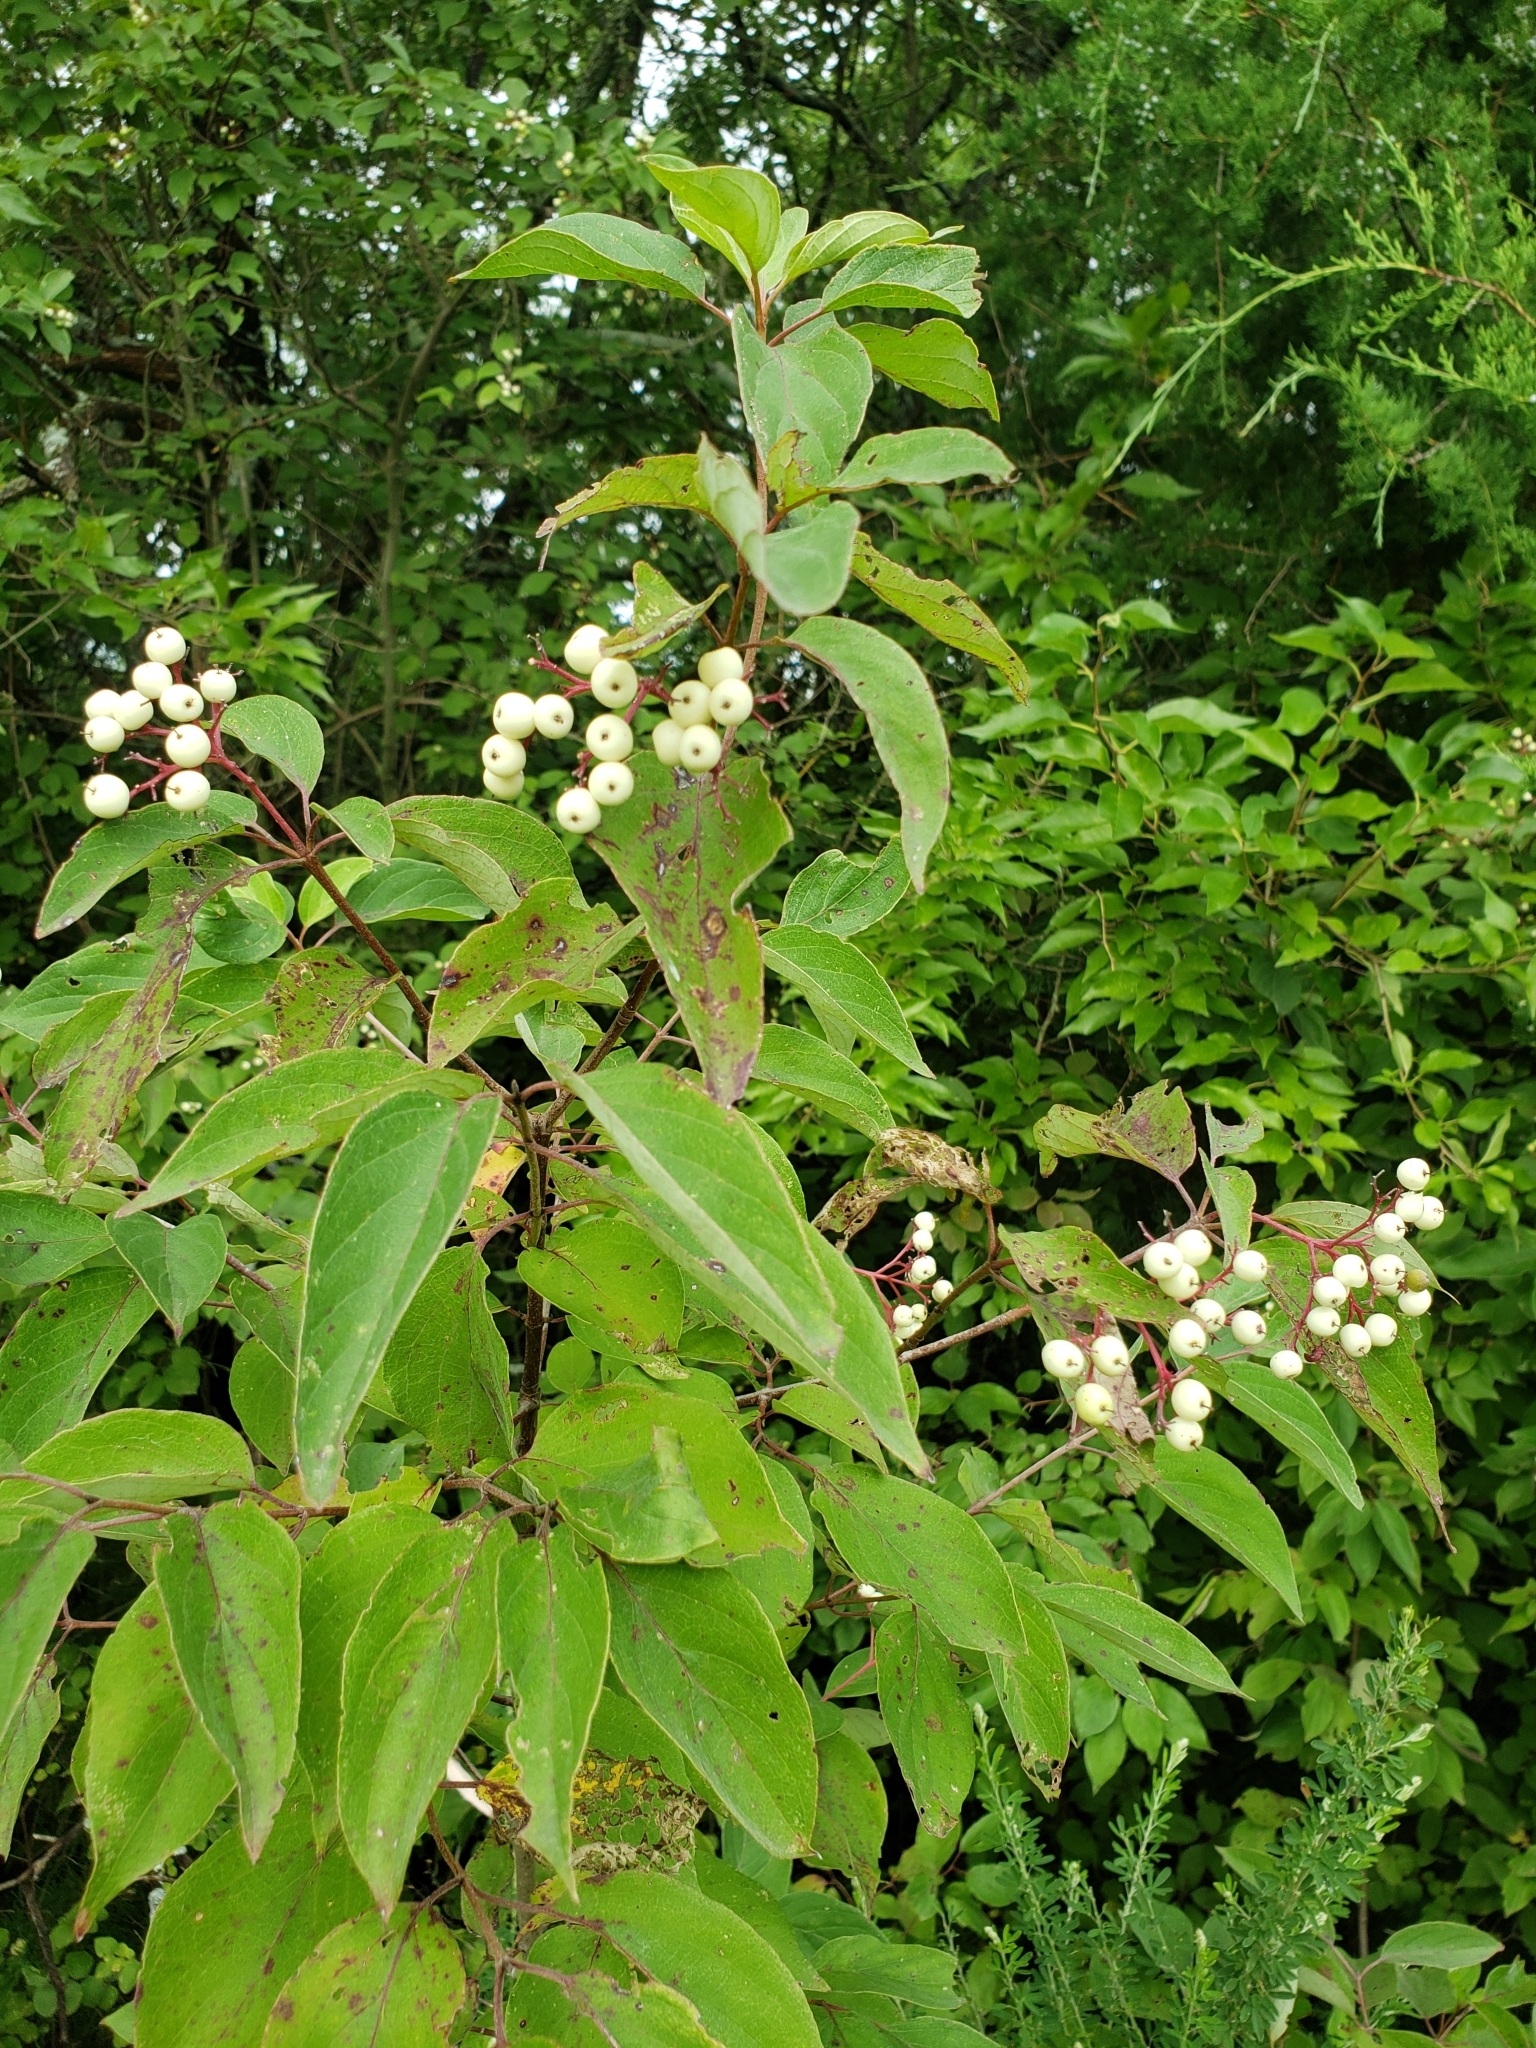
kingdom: Plantae
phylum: Tracheophyta
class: Magnoliopsida
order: Cornales
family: Cornaceae
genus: Cornus
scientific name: Cornus drummondii
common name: Rough-leaf dogwood
